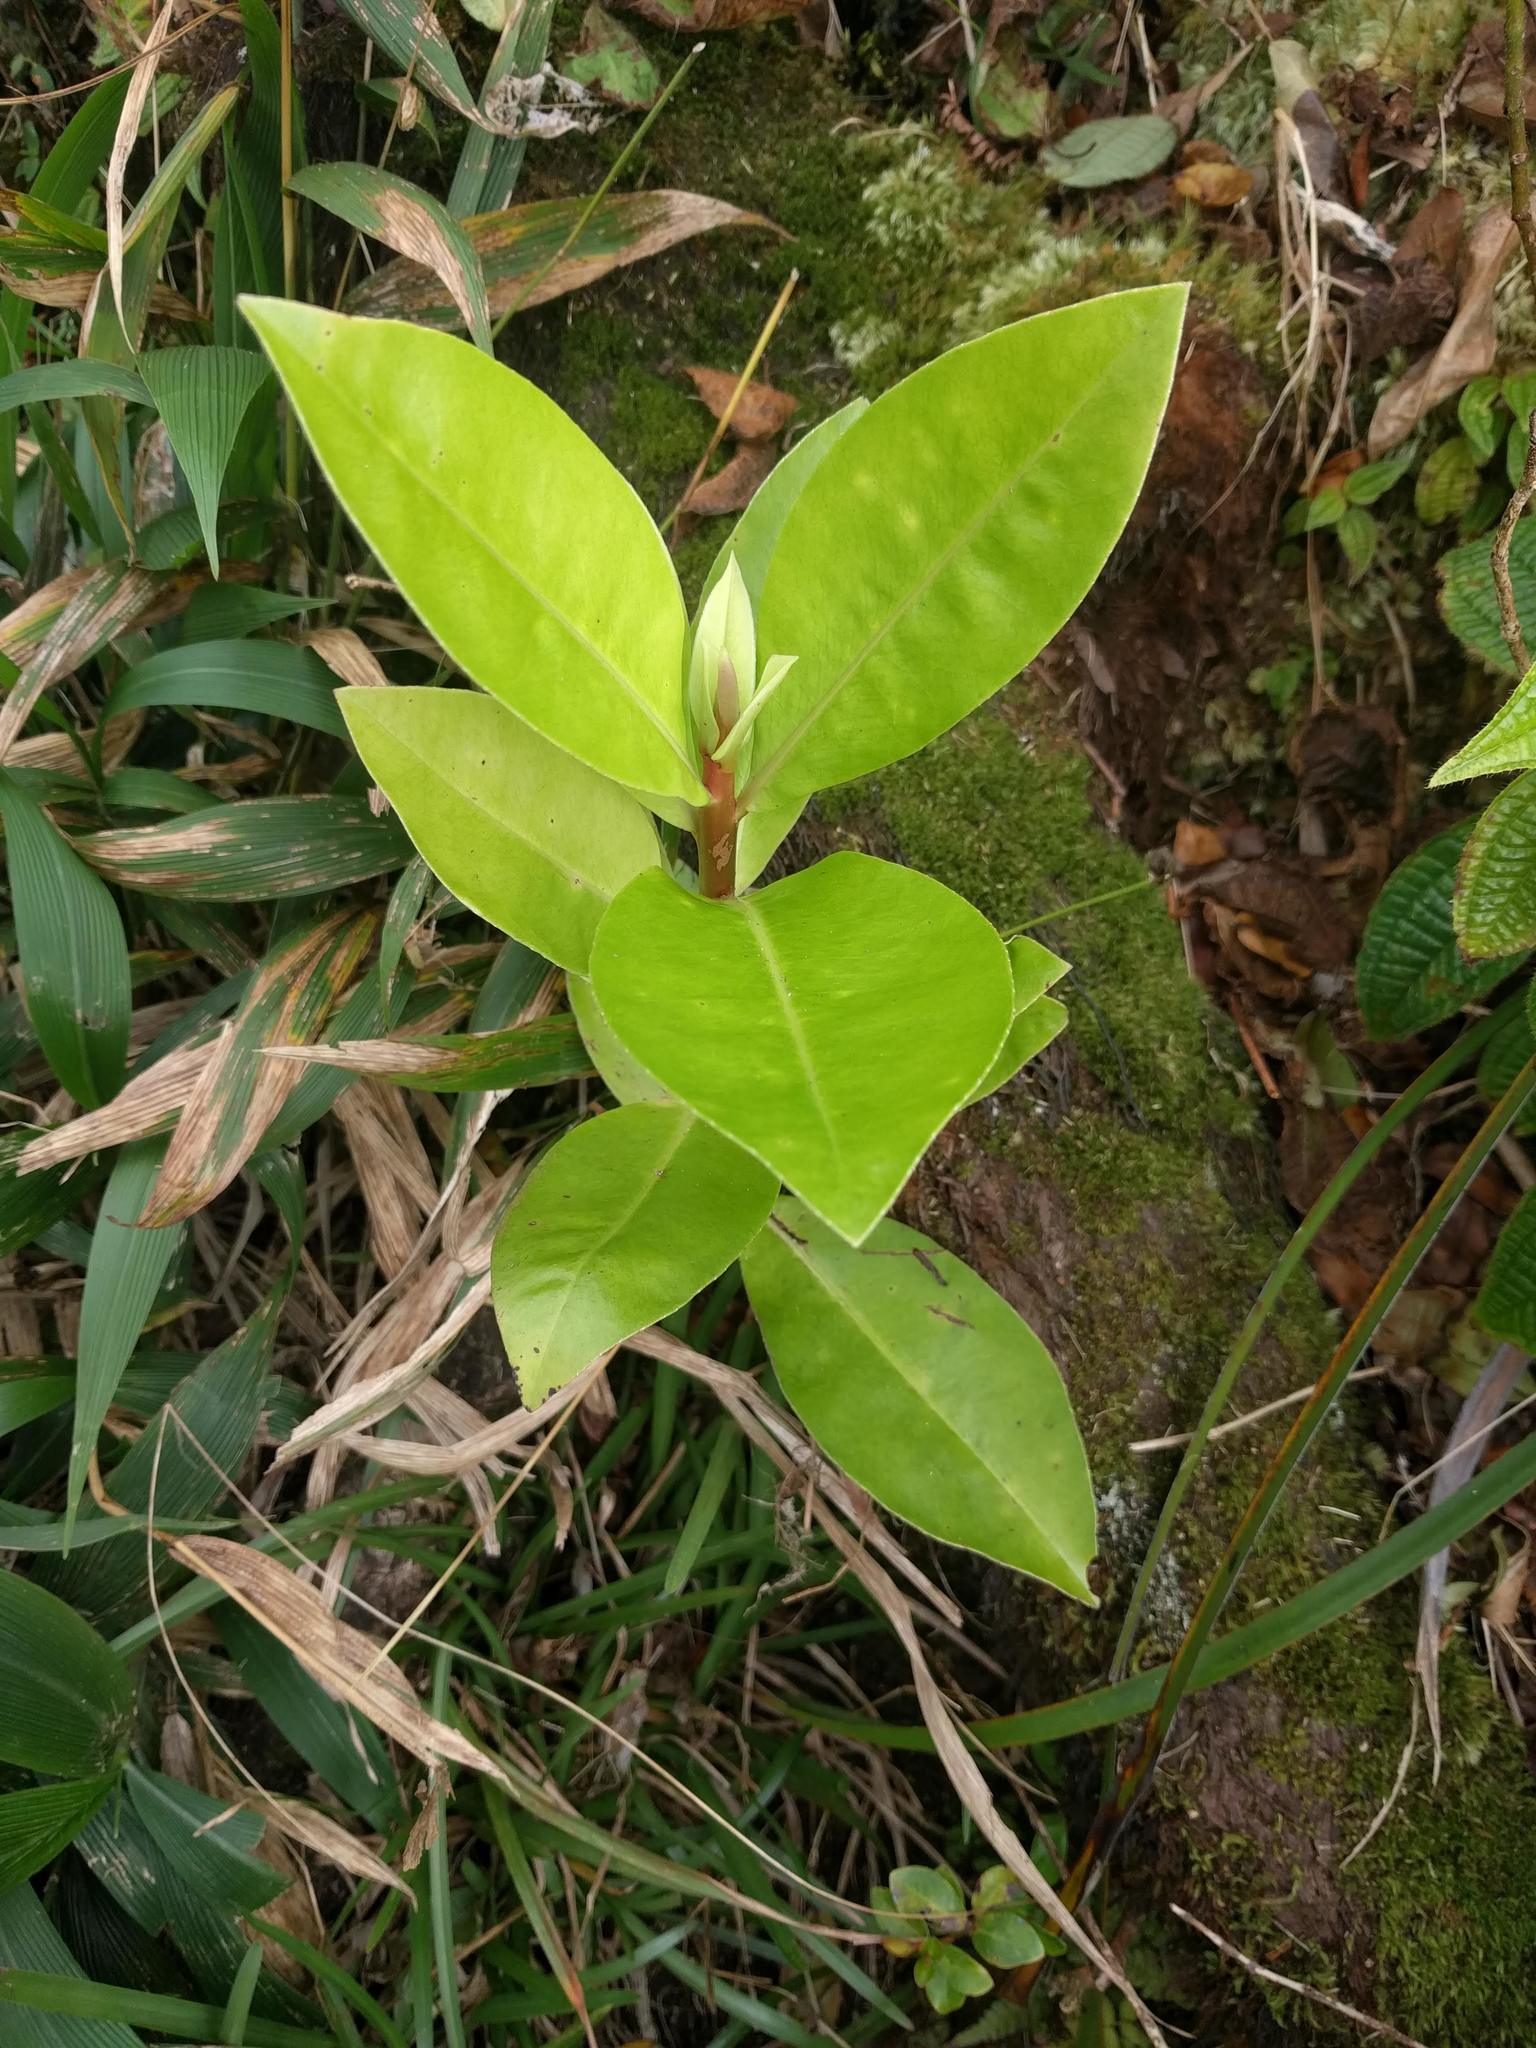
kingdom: Plantae
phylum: Tracheophyta
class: Magnoliopsida
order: Ericales
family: Primulaceae
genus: Myrsine
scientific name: Myrsine pukooensis
